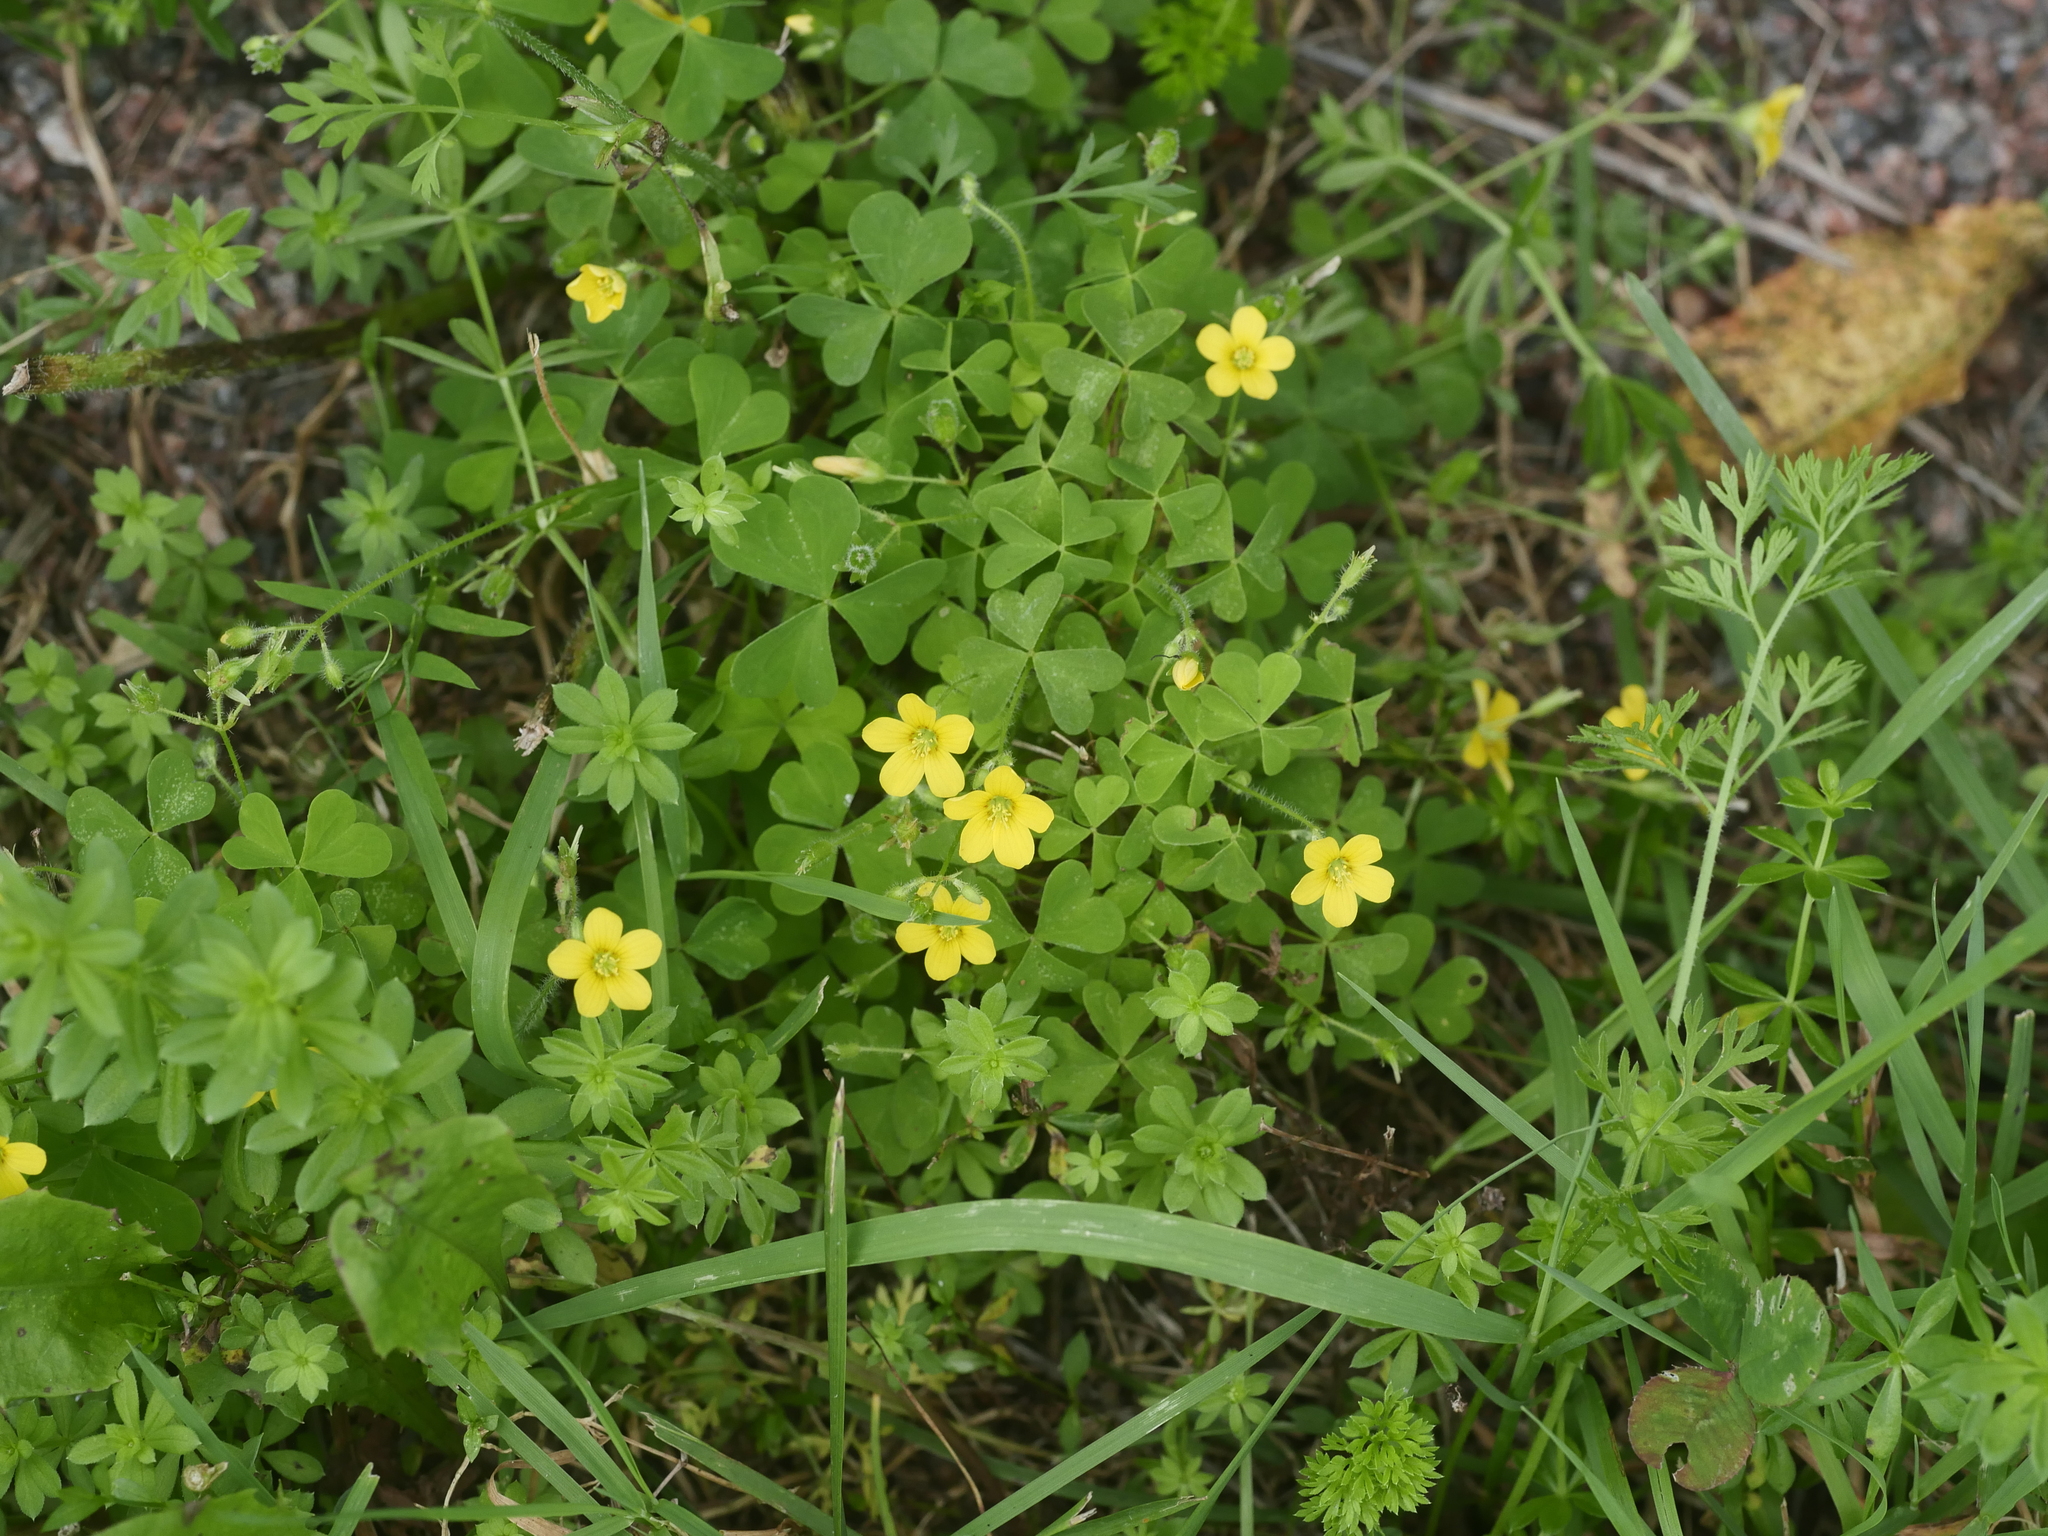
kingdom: Plantae
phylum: Tracheophyta
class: Magnoliopsida
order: Oxalidales
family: Oxalidaceae
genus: Oxalis
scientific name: Oxalis stricta
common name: Upright yellow-sorrel
